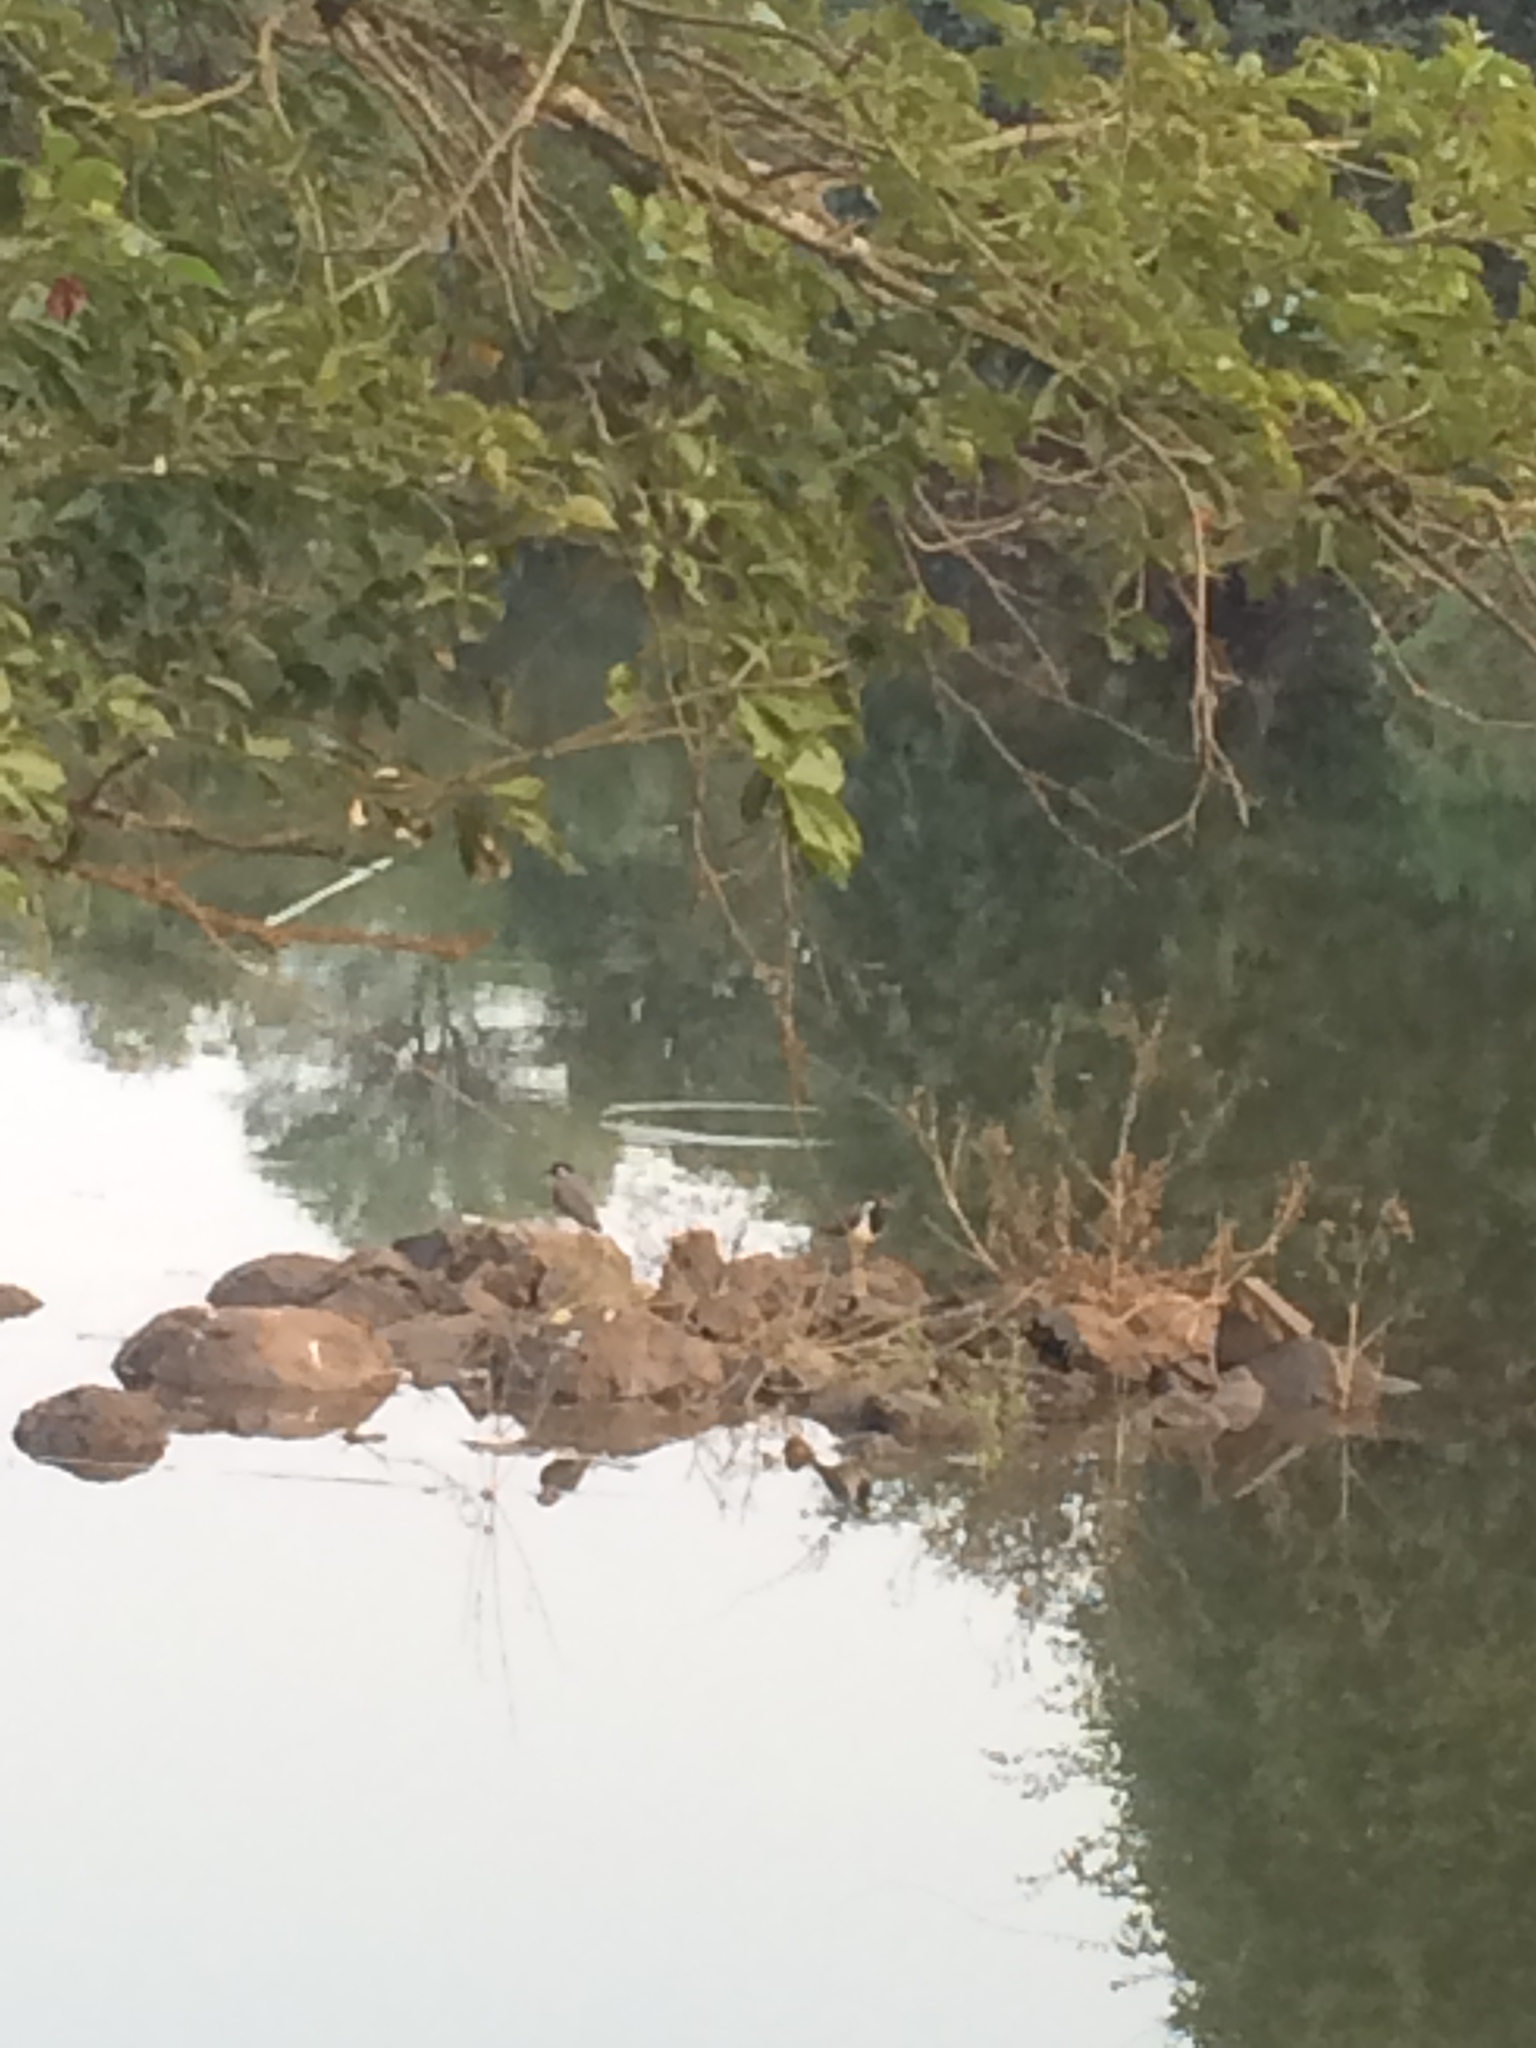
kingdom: Animalia
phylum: Chordata
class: Aves
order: Charadriiformes
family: Charadriidae
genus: Vanellus
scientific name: Vanellus indicus
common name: Red-wattled lapwing
